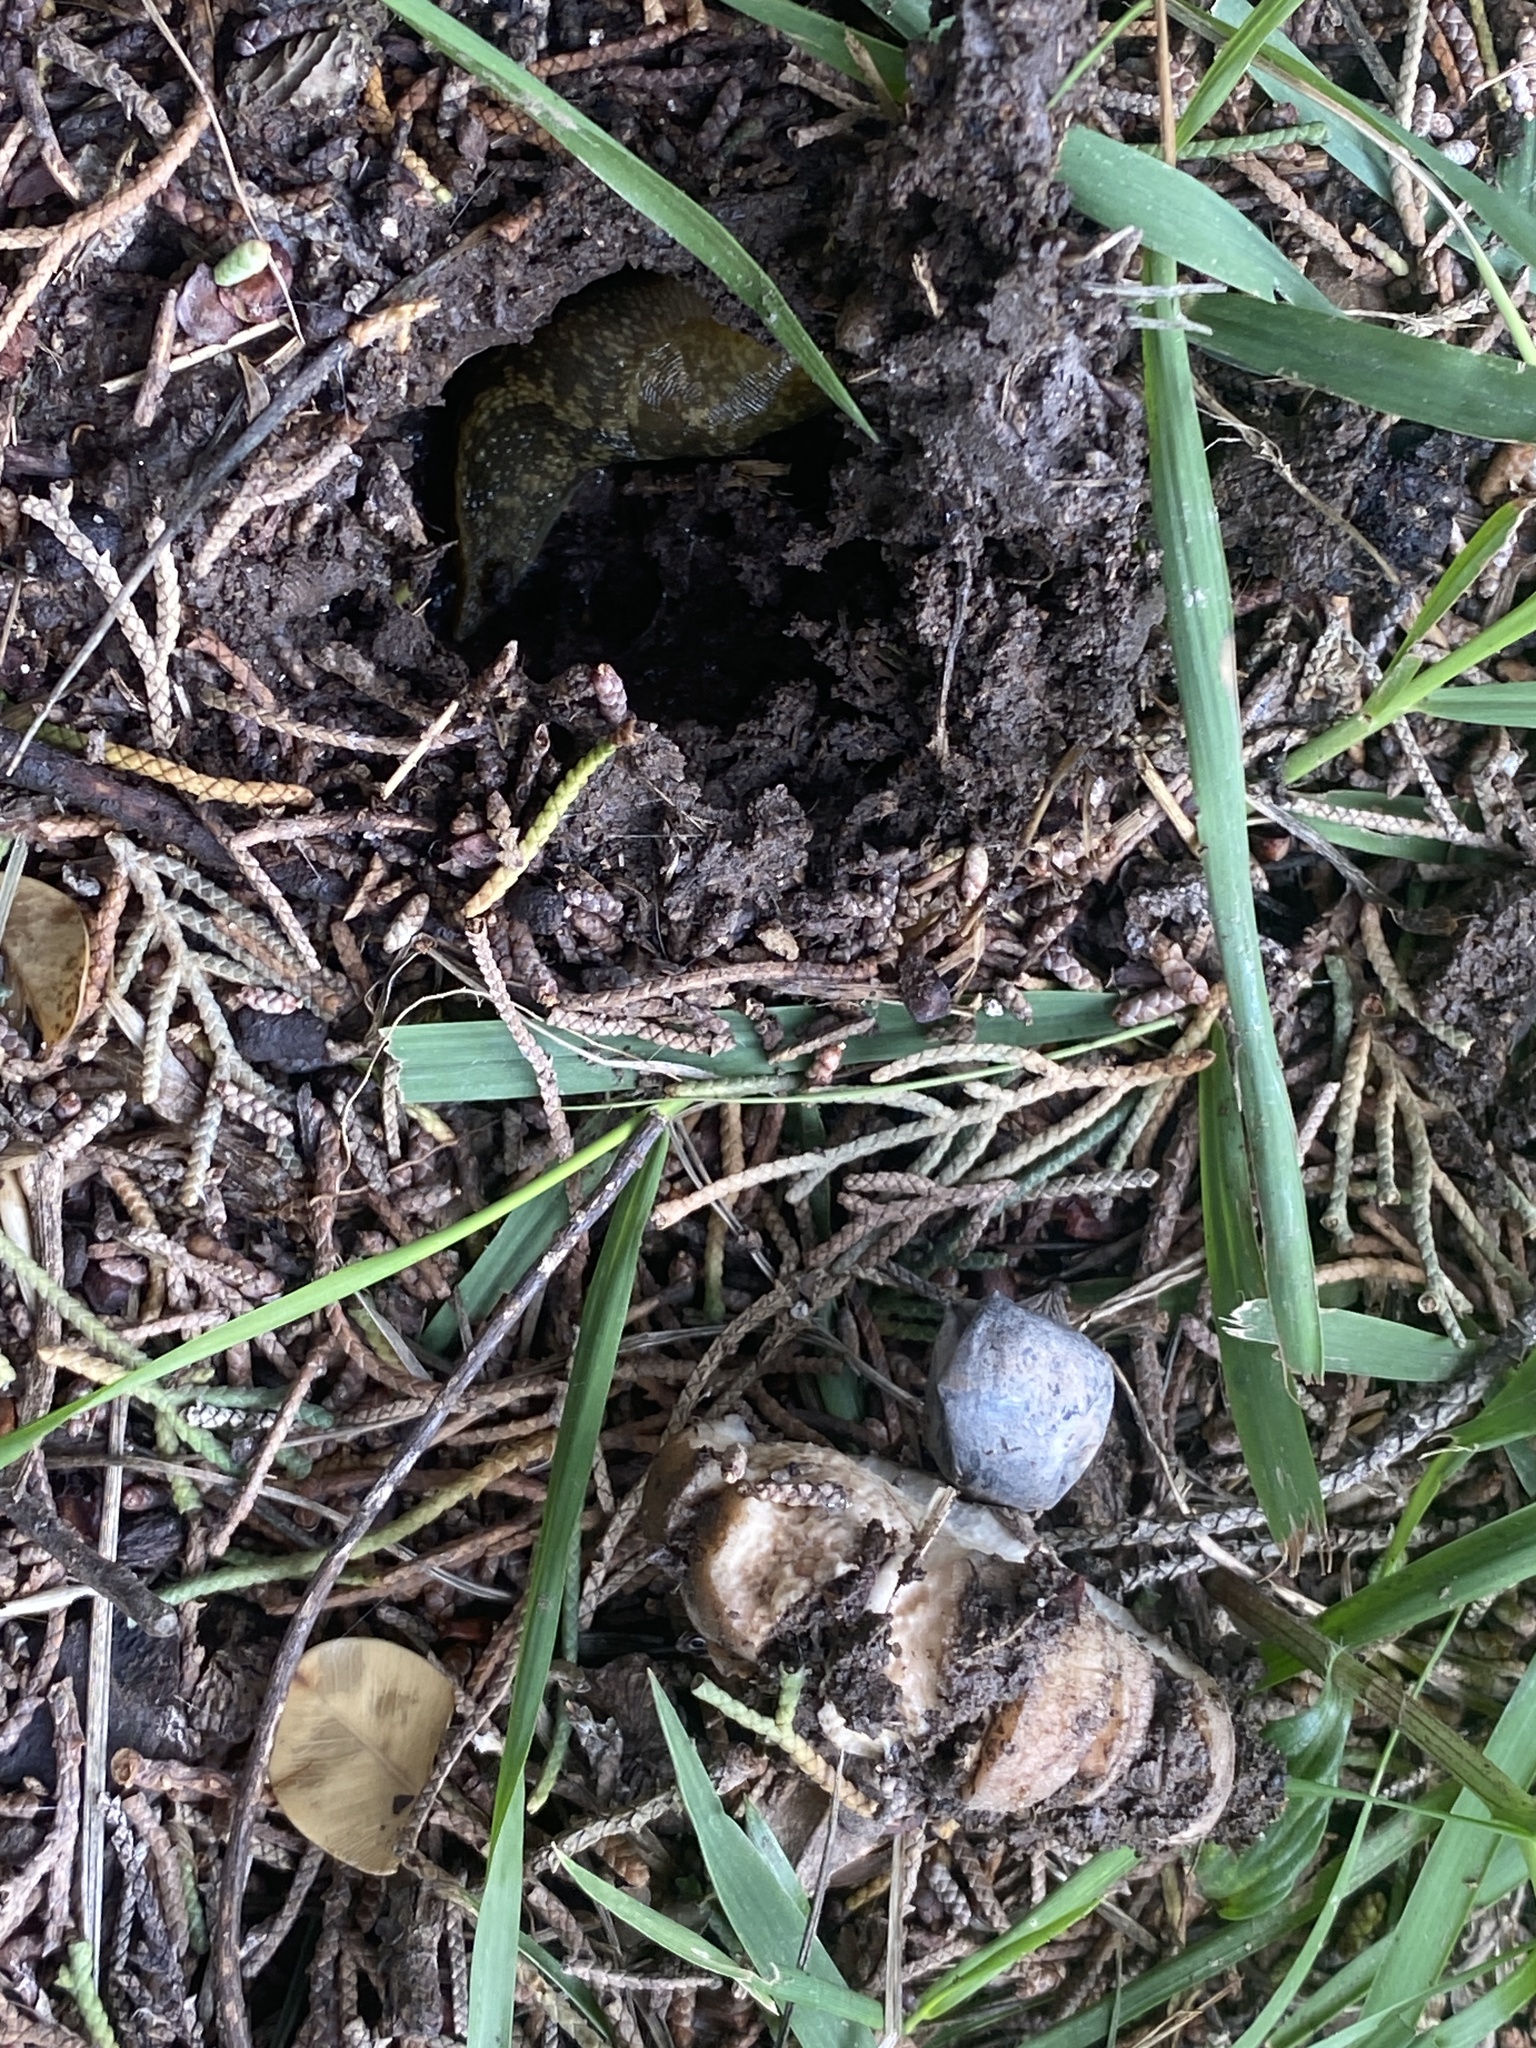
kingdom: Animalia
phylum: Mollusca
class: Gastropoda
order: Stylommatophora
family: Limacidae
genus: Limacus
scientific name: Limacus flavus
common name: Yellow gardenslug
